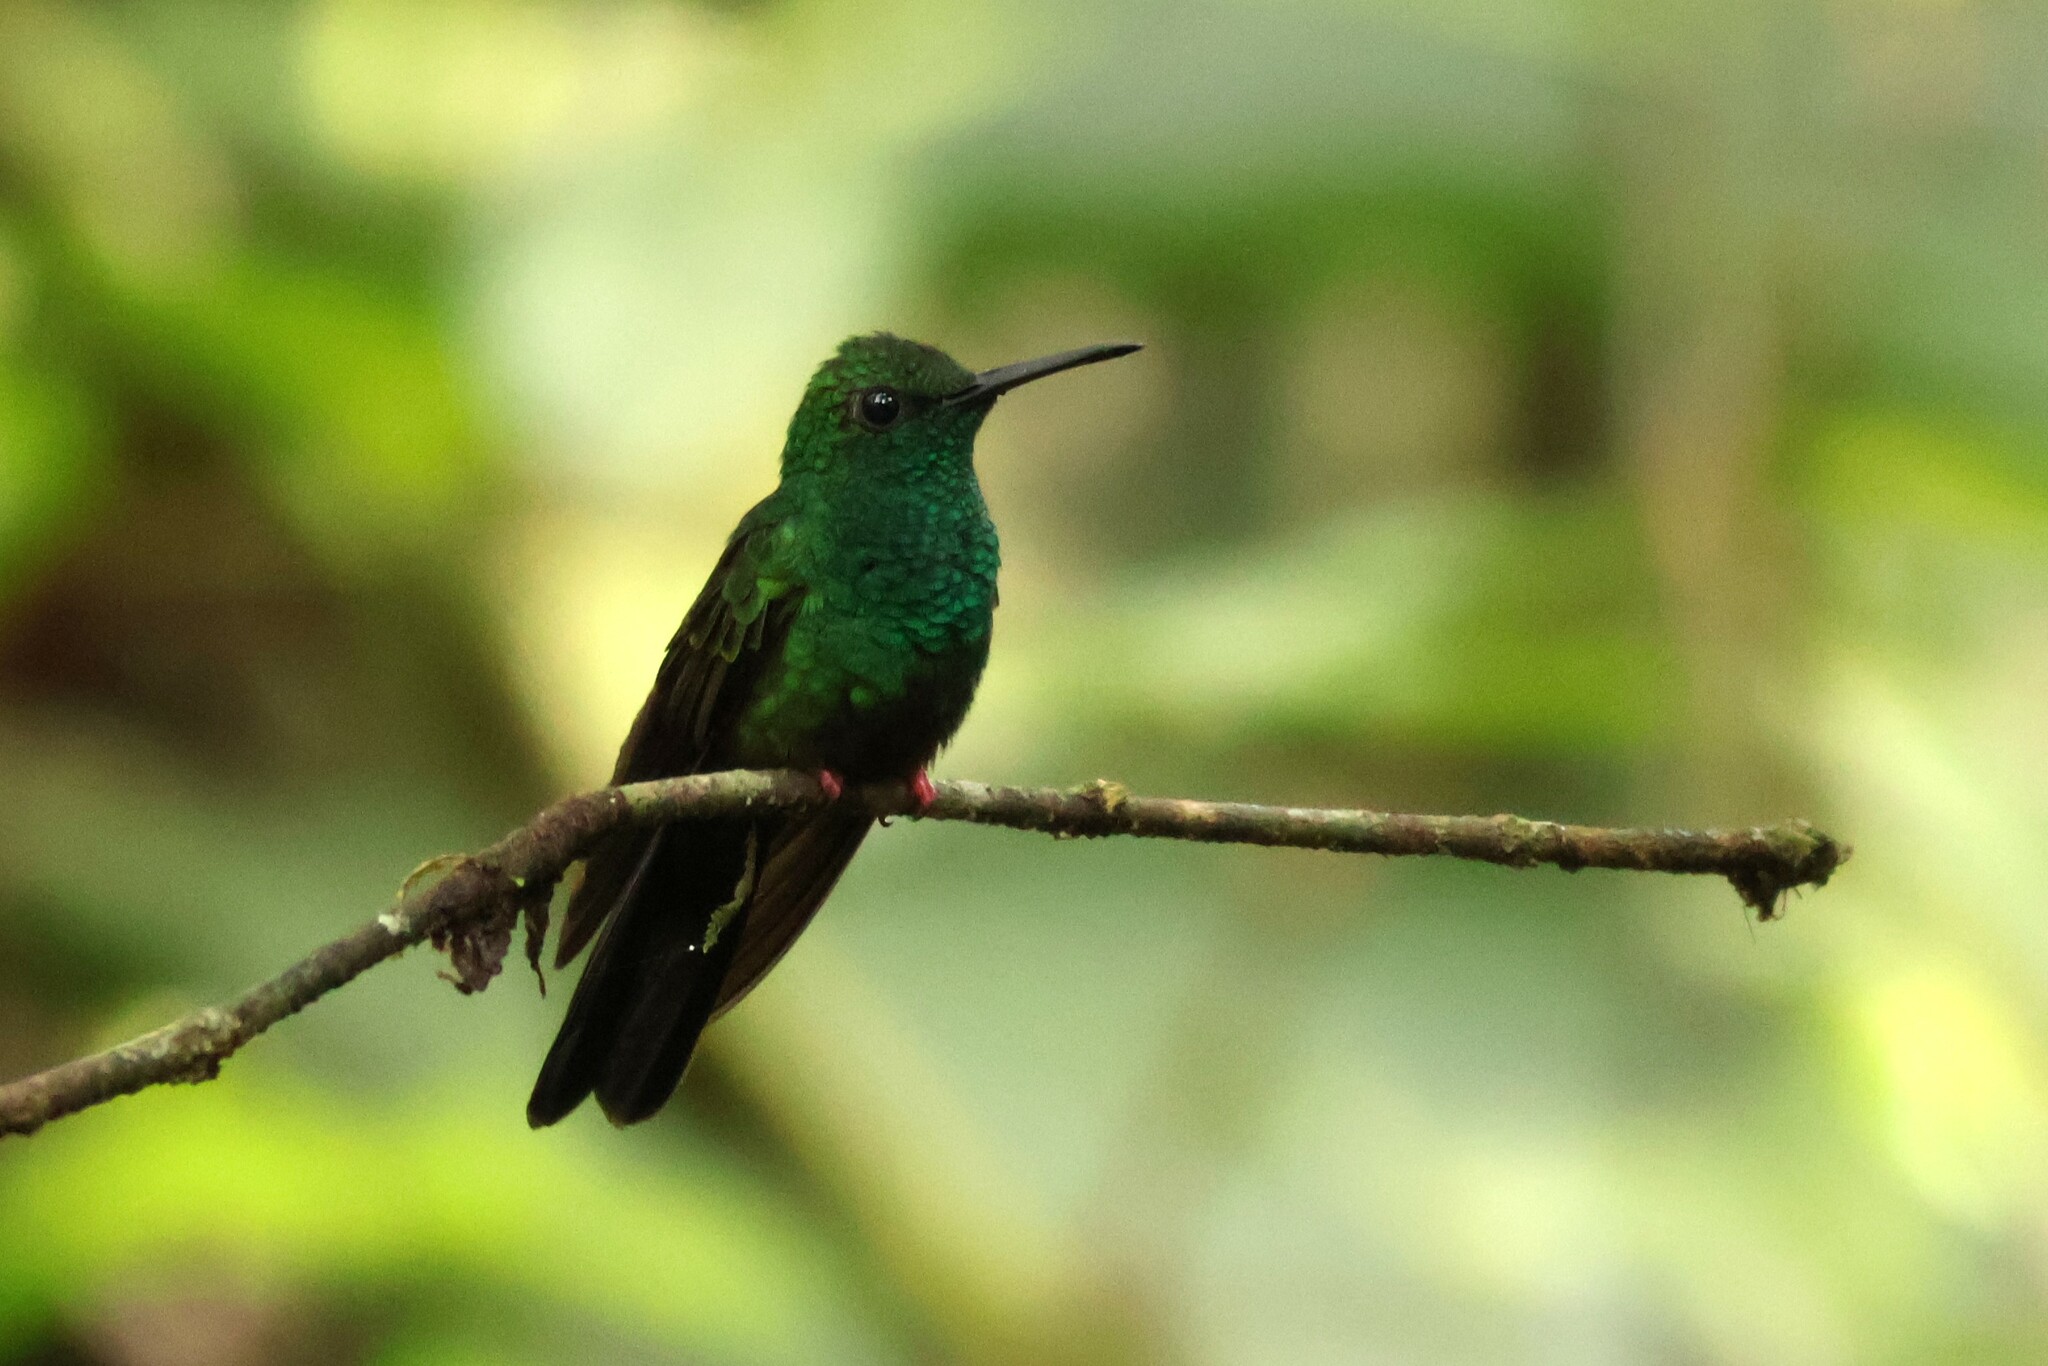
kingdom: Animalia
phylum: Chordata
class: Aves
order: Apodiformes
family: Trochilidae
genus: Chalybura
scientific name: Chalybura urochrysia
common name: Bronze-tailed plumeleteer
